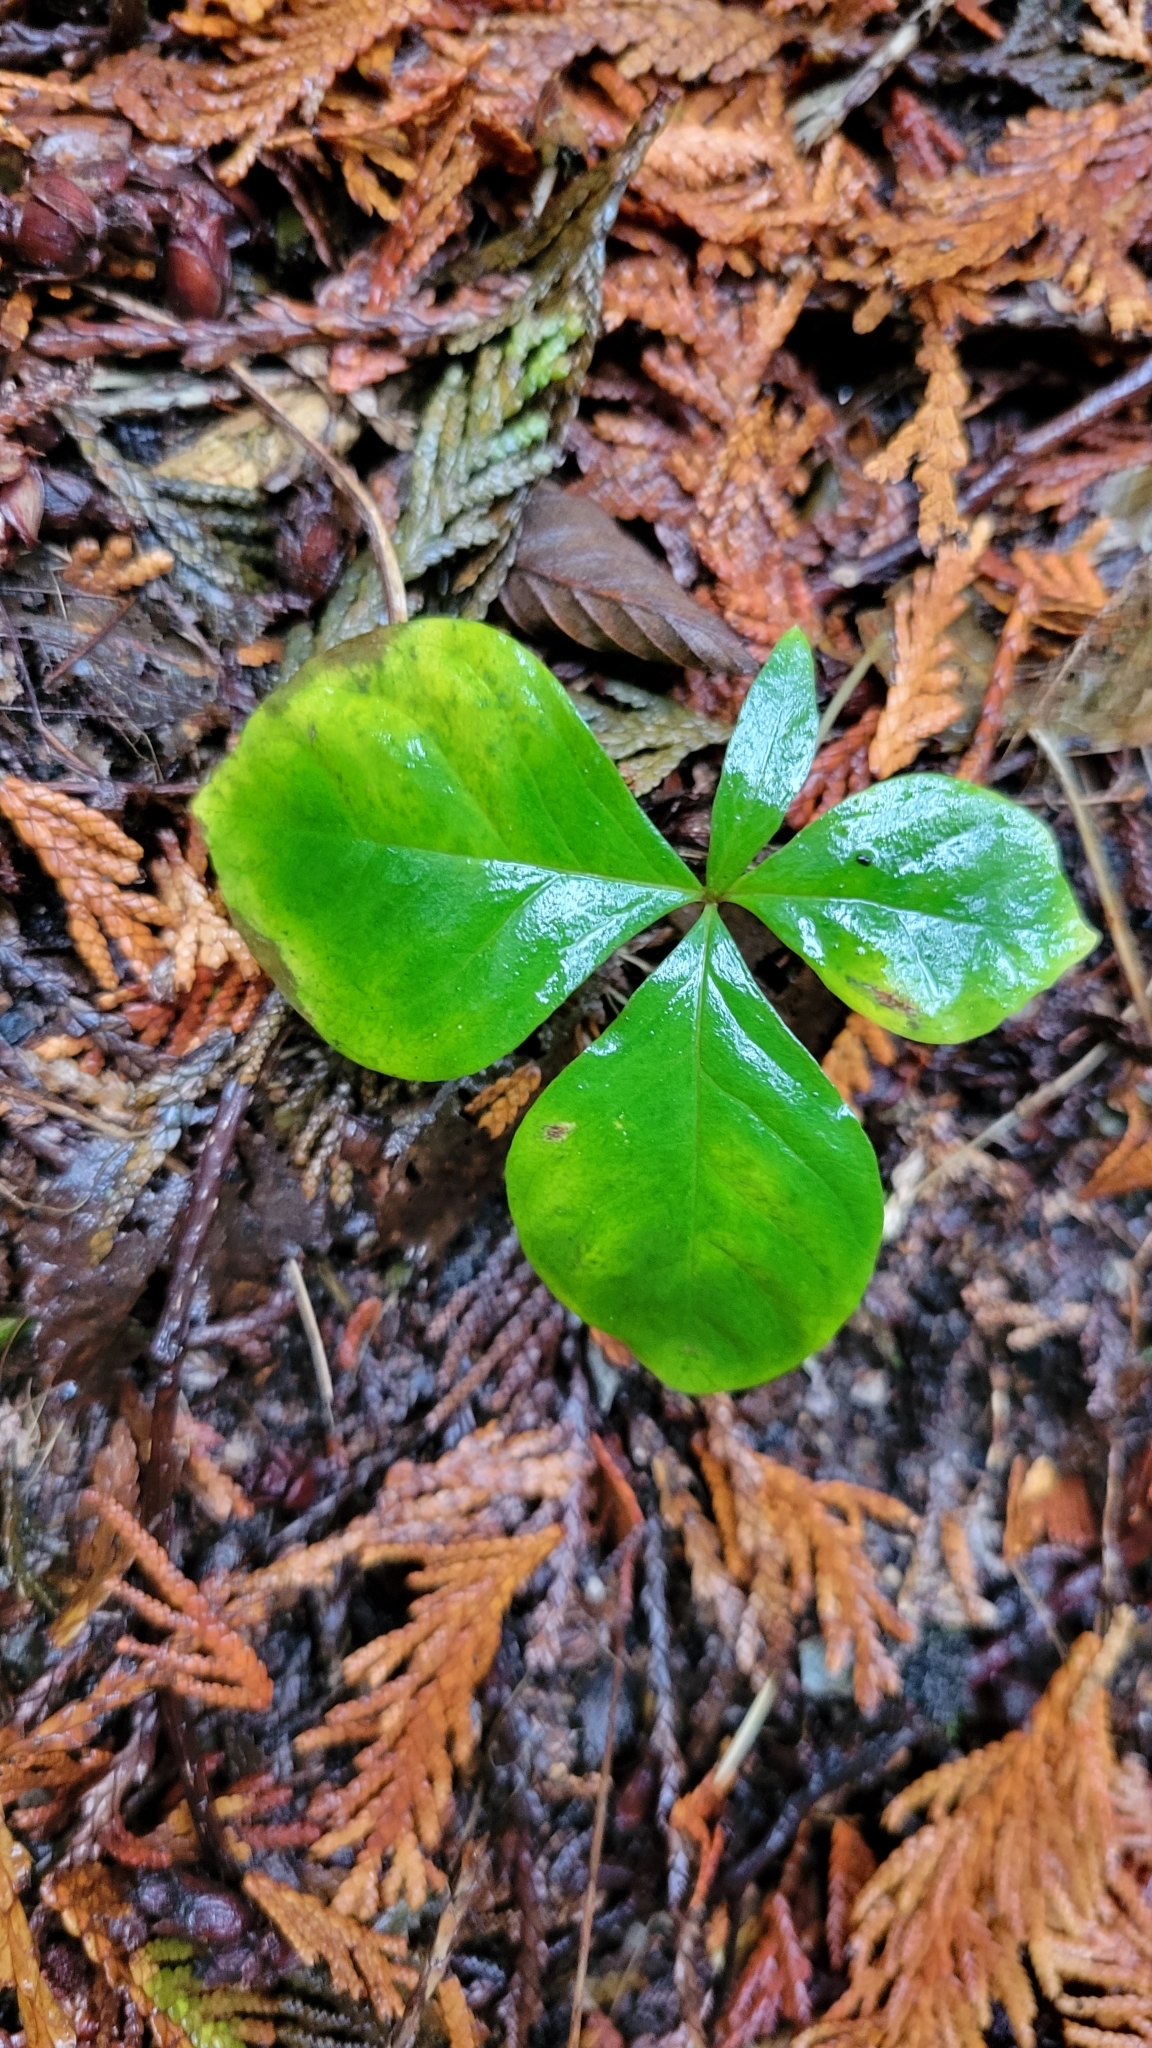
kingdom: Plantae
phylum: Tracheophyta
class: Magnoliopsida
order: Ericales
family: Primulaceae
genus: Lysimachia
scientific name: Lysimachia latifolia
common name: Pacific starflower
